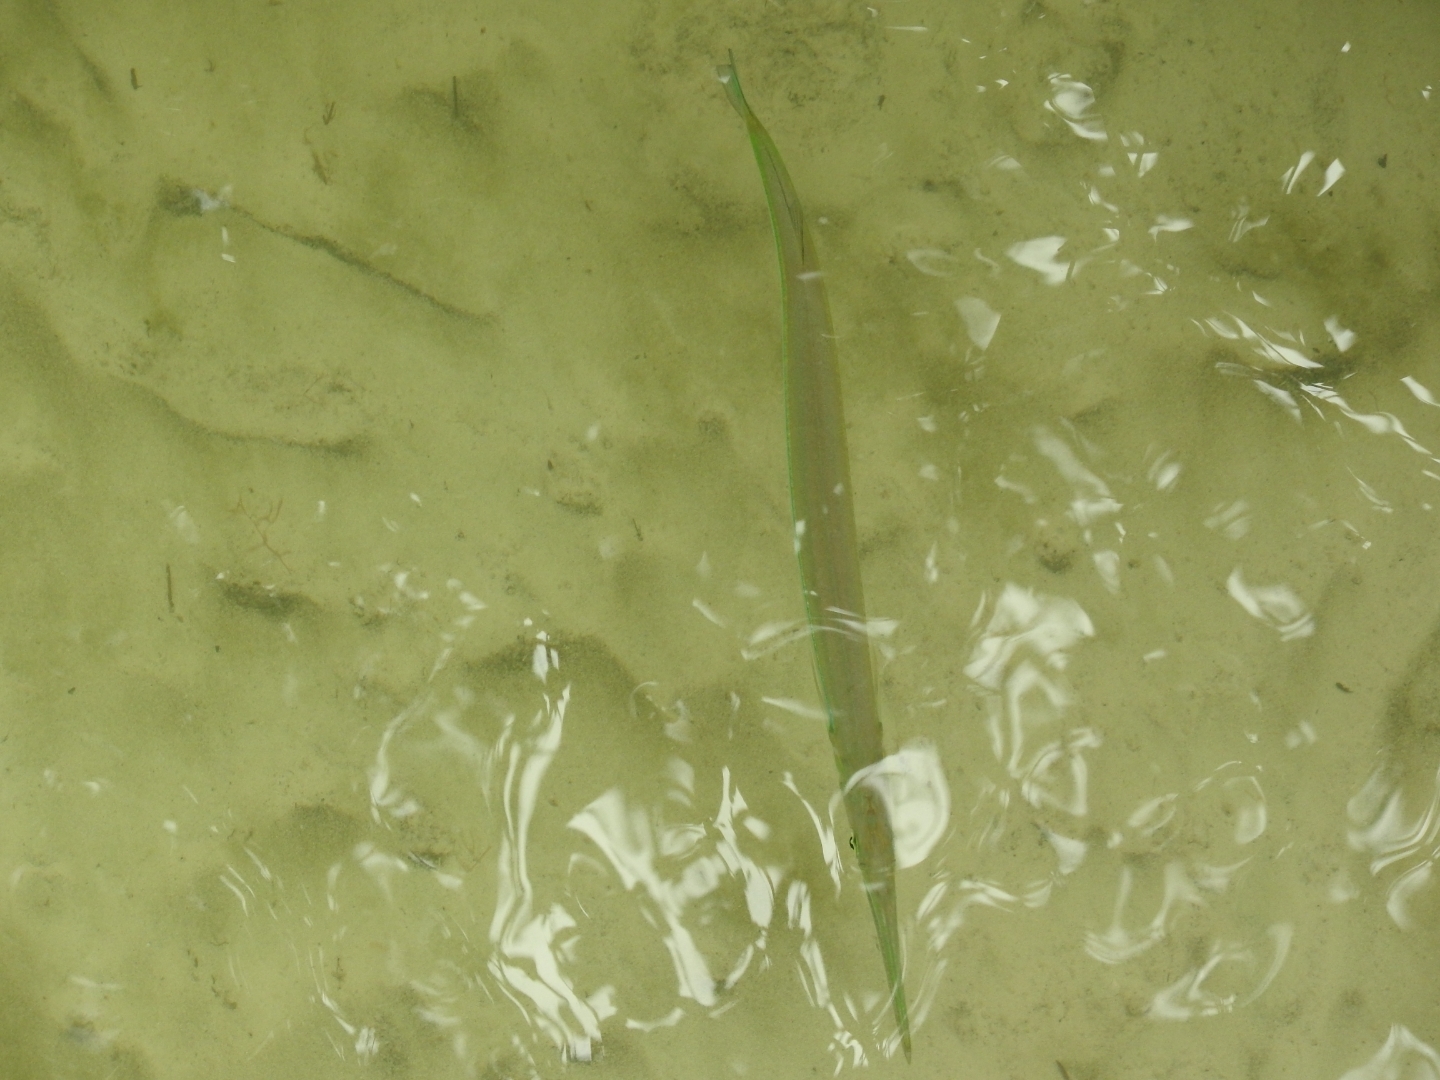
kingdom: Animalia
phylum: Chordata
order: Beloniformes
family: Belonidae
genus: Strongylura
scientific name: Strongylura marina
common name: Atlantic needlefish
